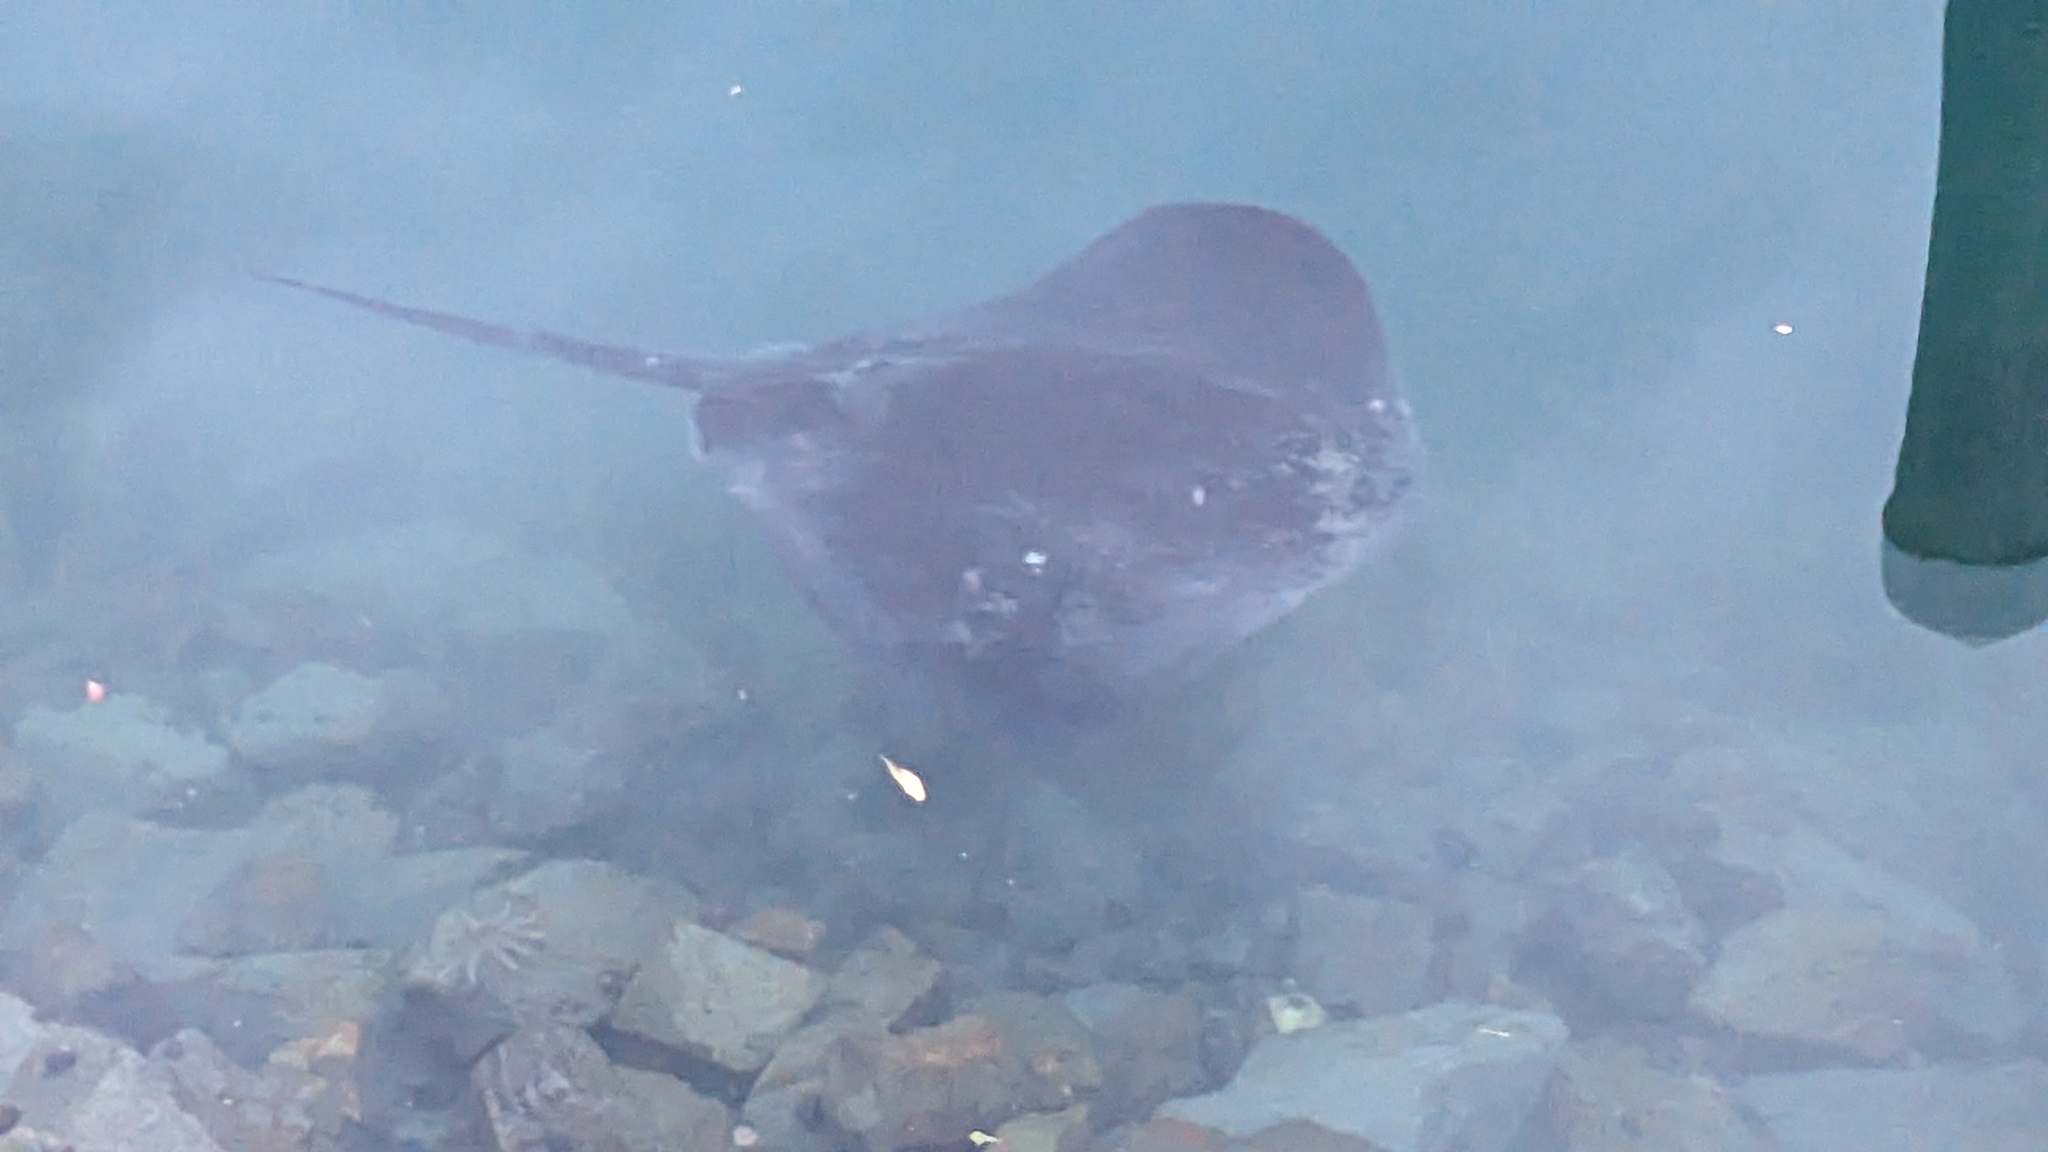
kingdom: Animalia
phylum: Chordata
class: Elasmobranchii
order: Myliobatiformes
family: Dasyatidae
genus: Bathytoshia
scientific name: Bathytoshia brevicaudata
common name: Short-tail stingray
